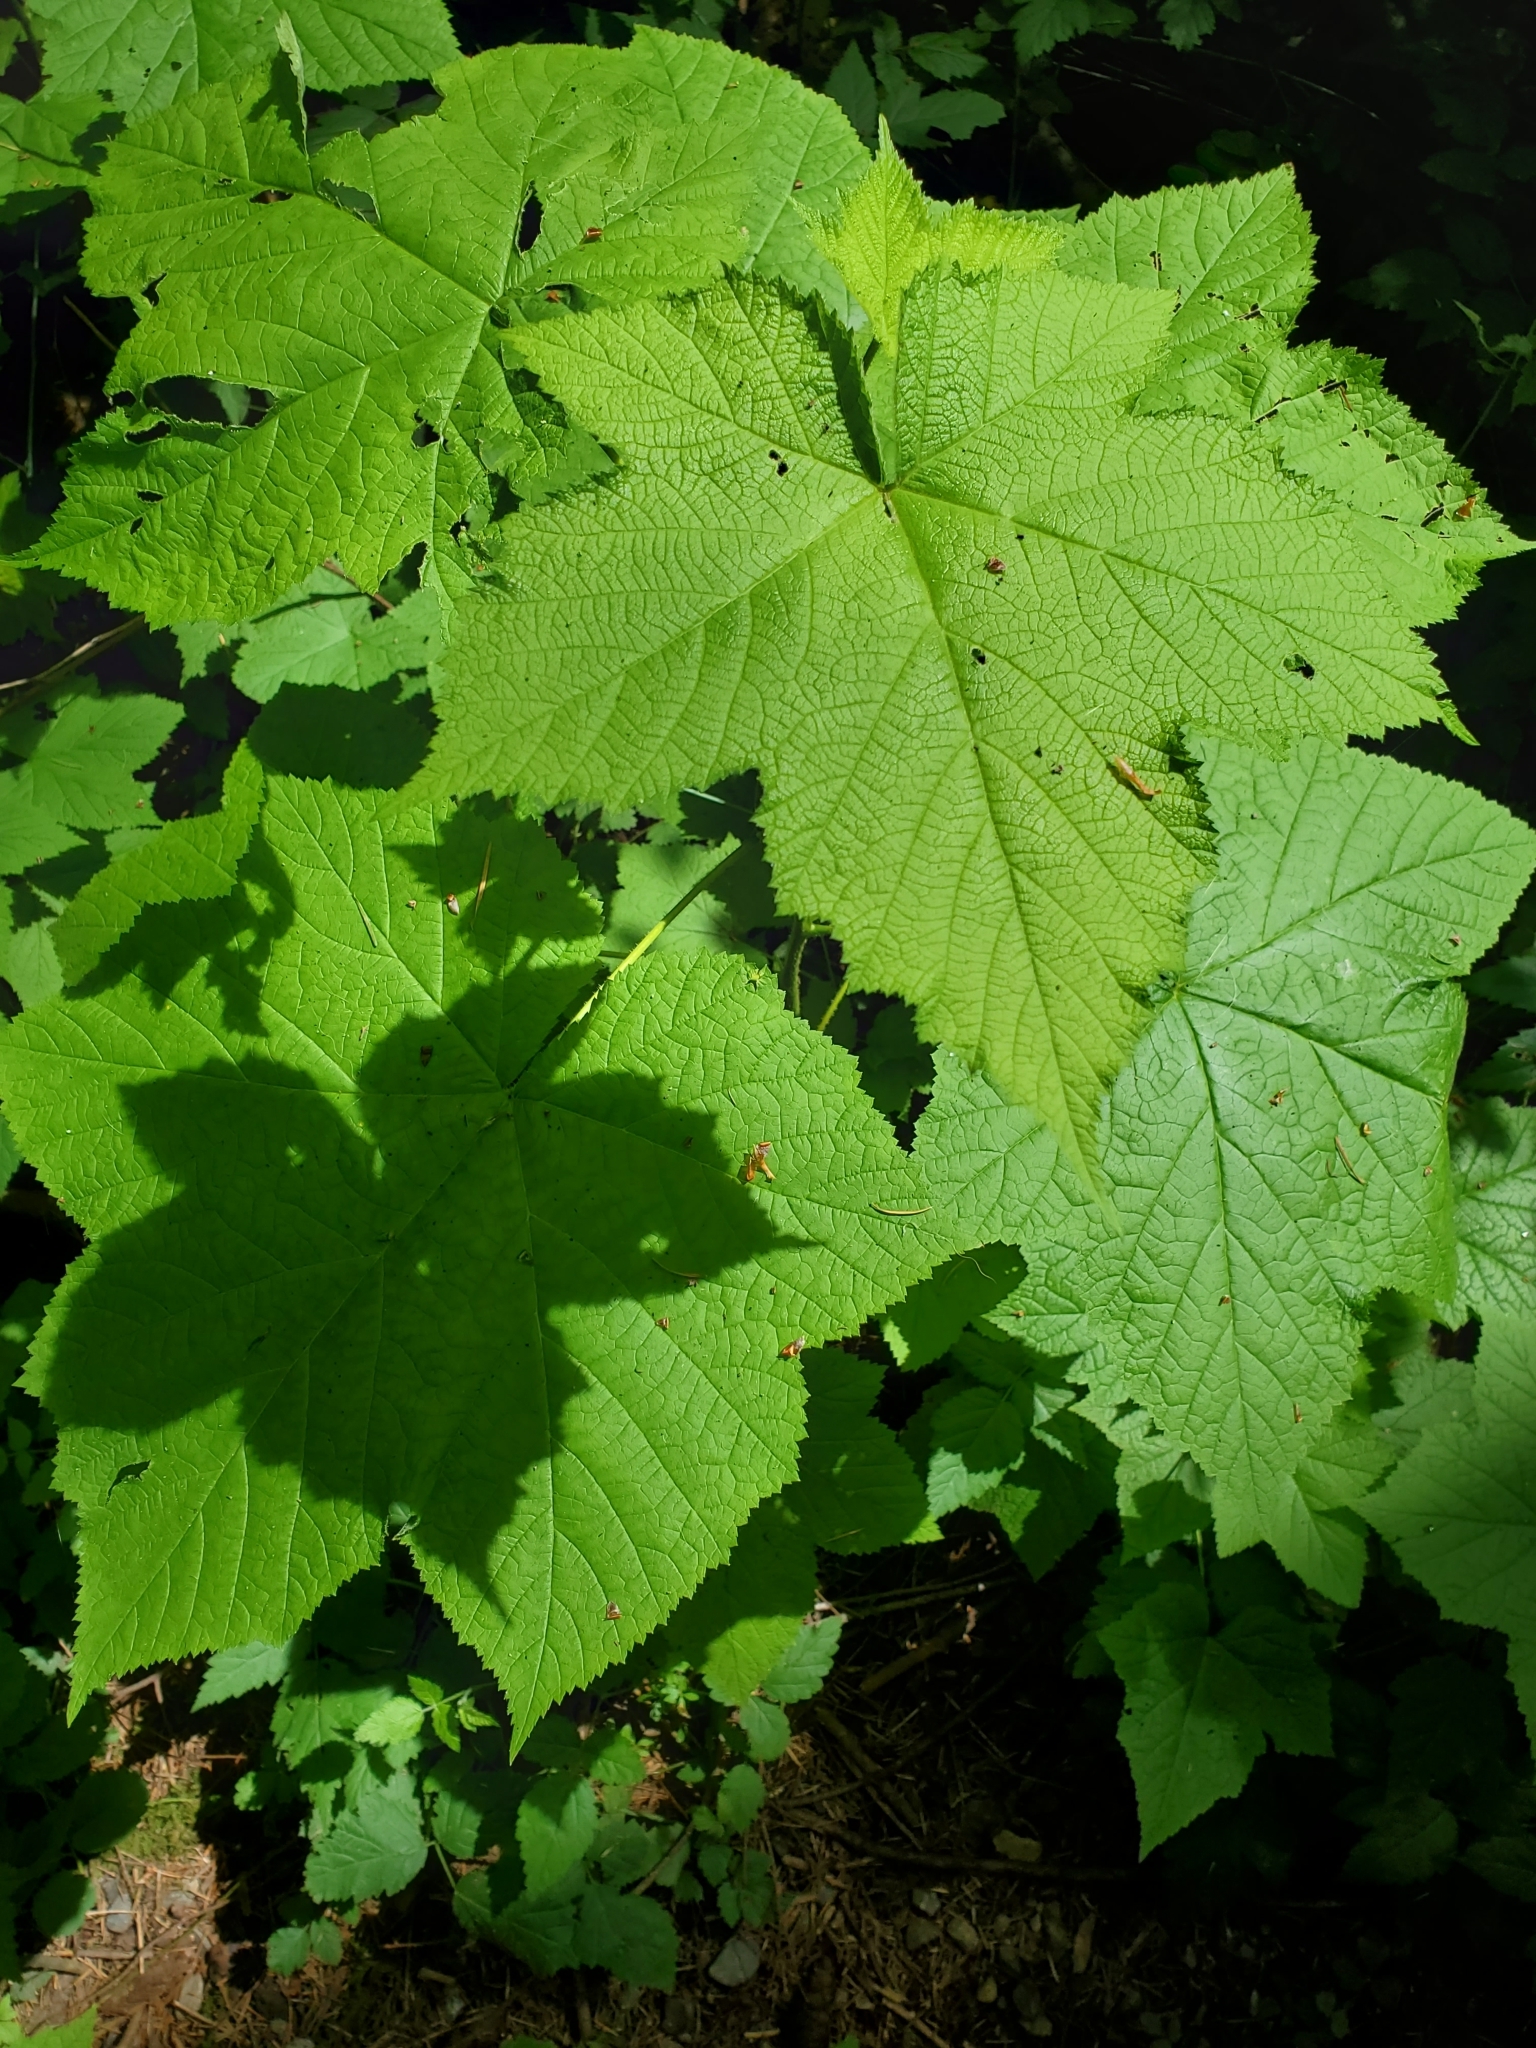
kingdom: Plantae
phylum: Tracheophyta
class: Magnoliopsida
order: Rosales
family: Rosaceae
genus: Rubus
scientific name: Rubus parviflorus
